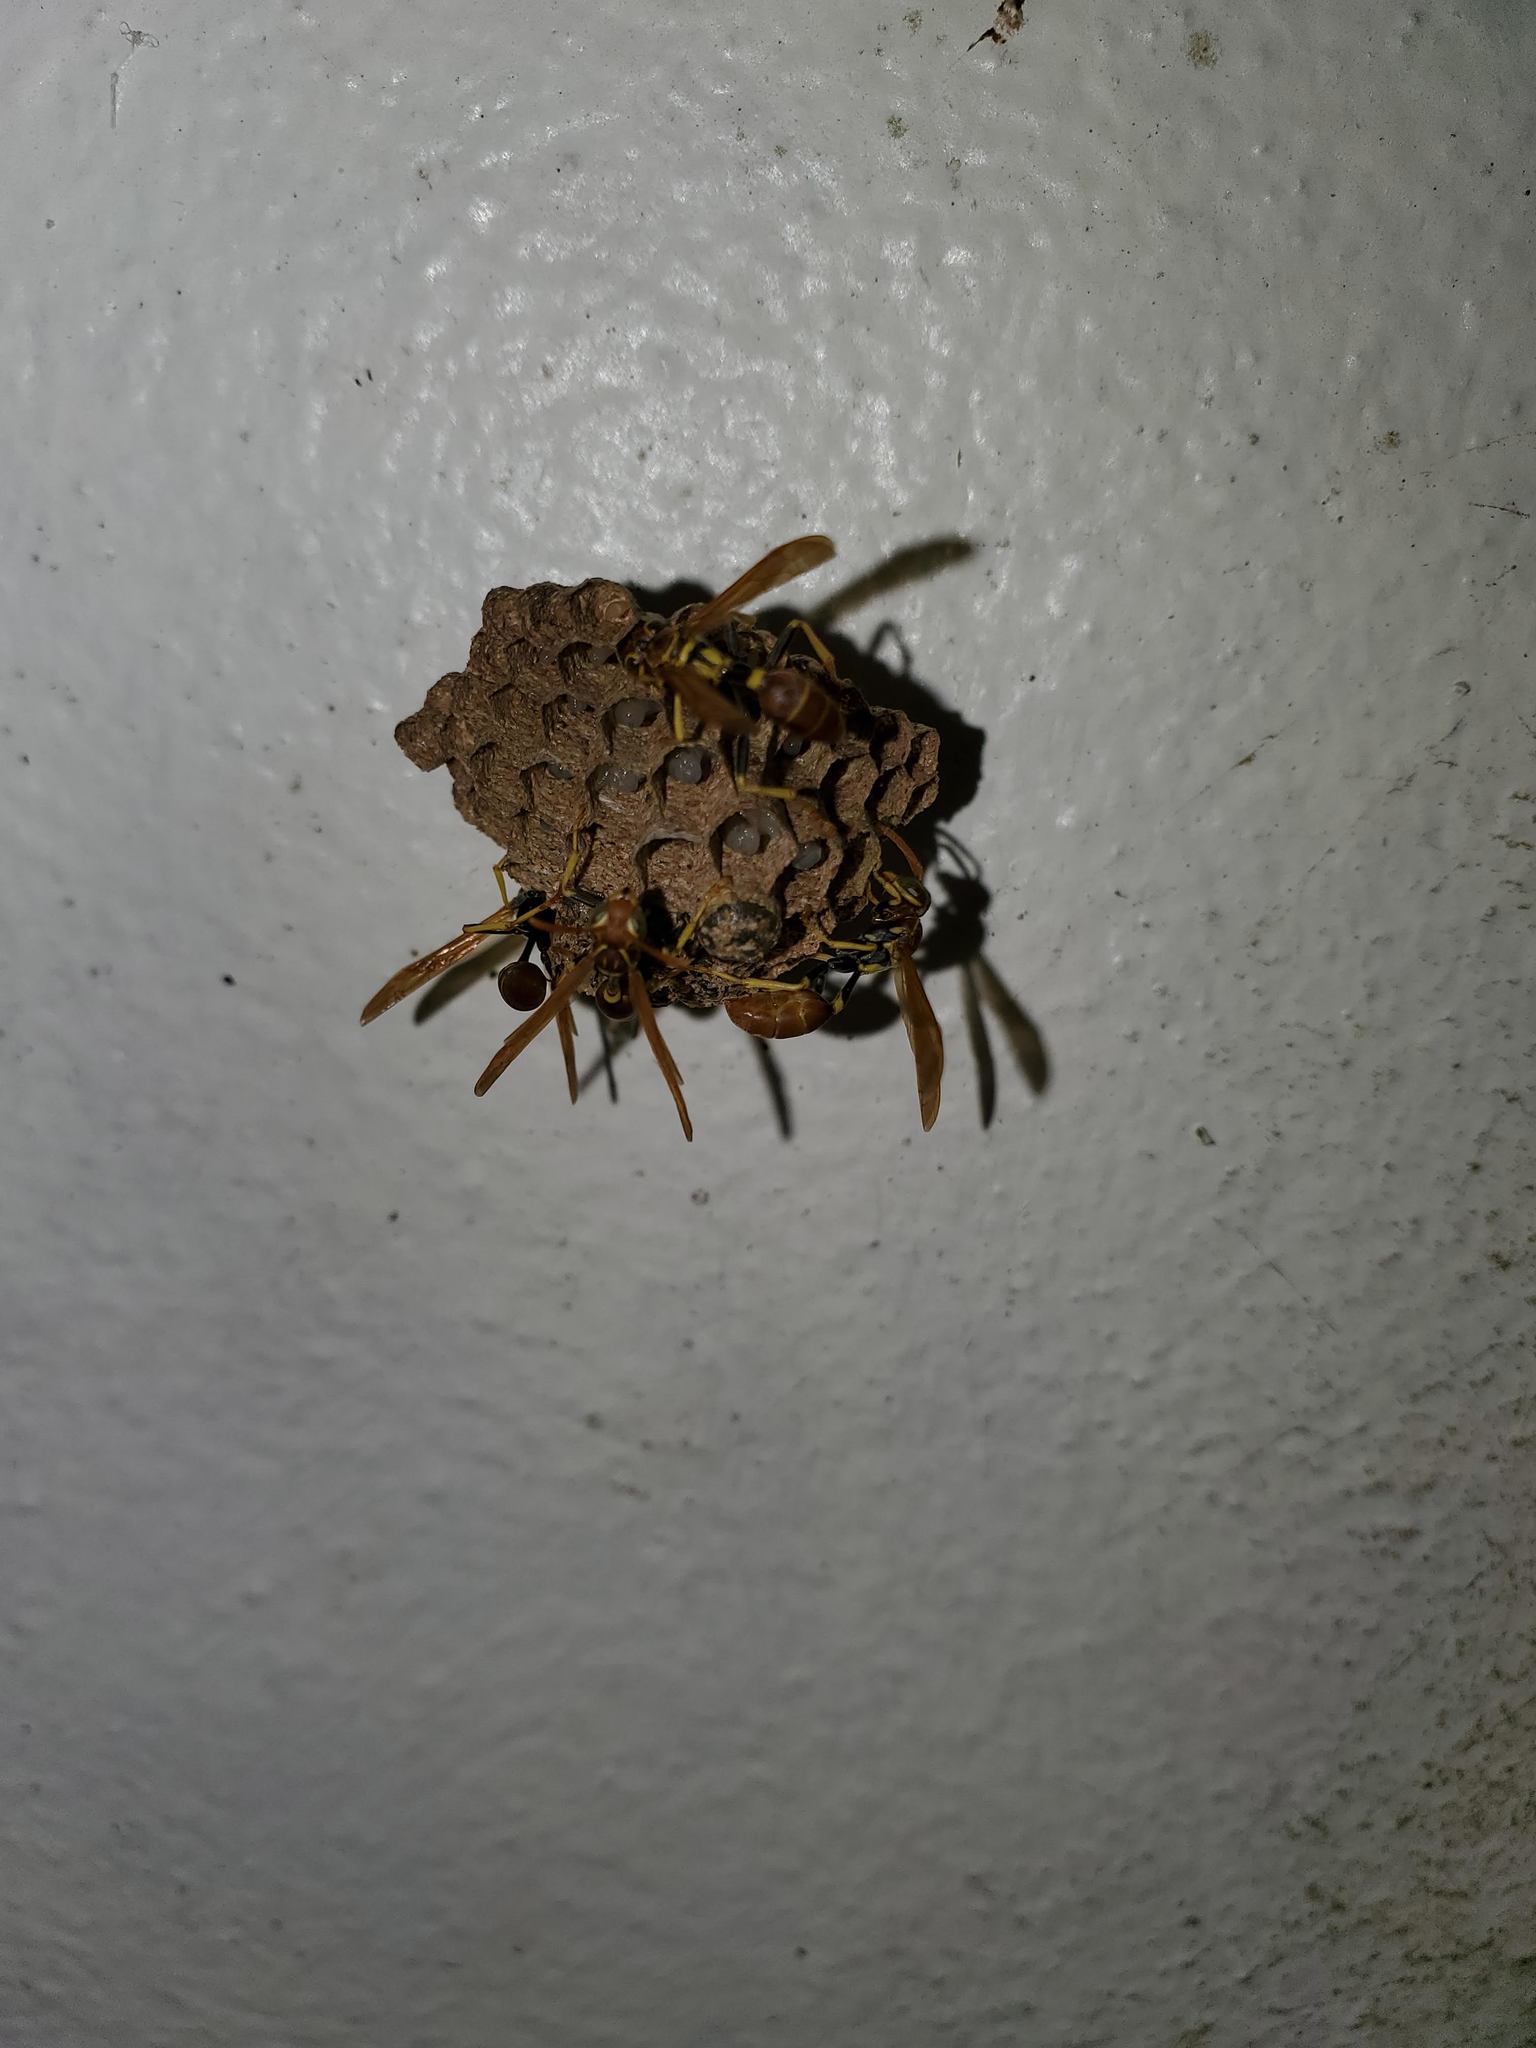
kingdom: Animalia
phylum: Arthropoda
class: Insecta
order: Hymenoptera
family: Vespidae
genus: Mischocyttarus
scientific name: Mischocyttarus phthisicus
